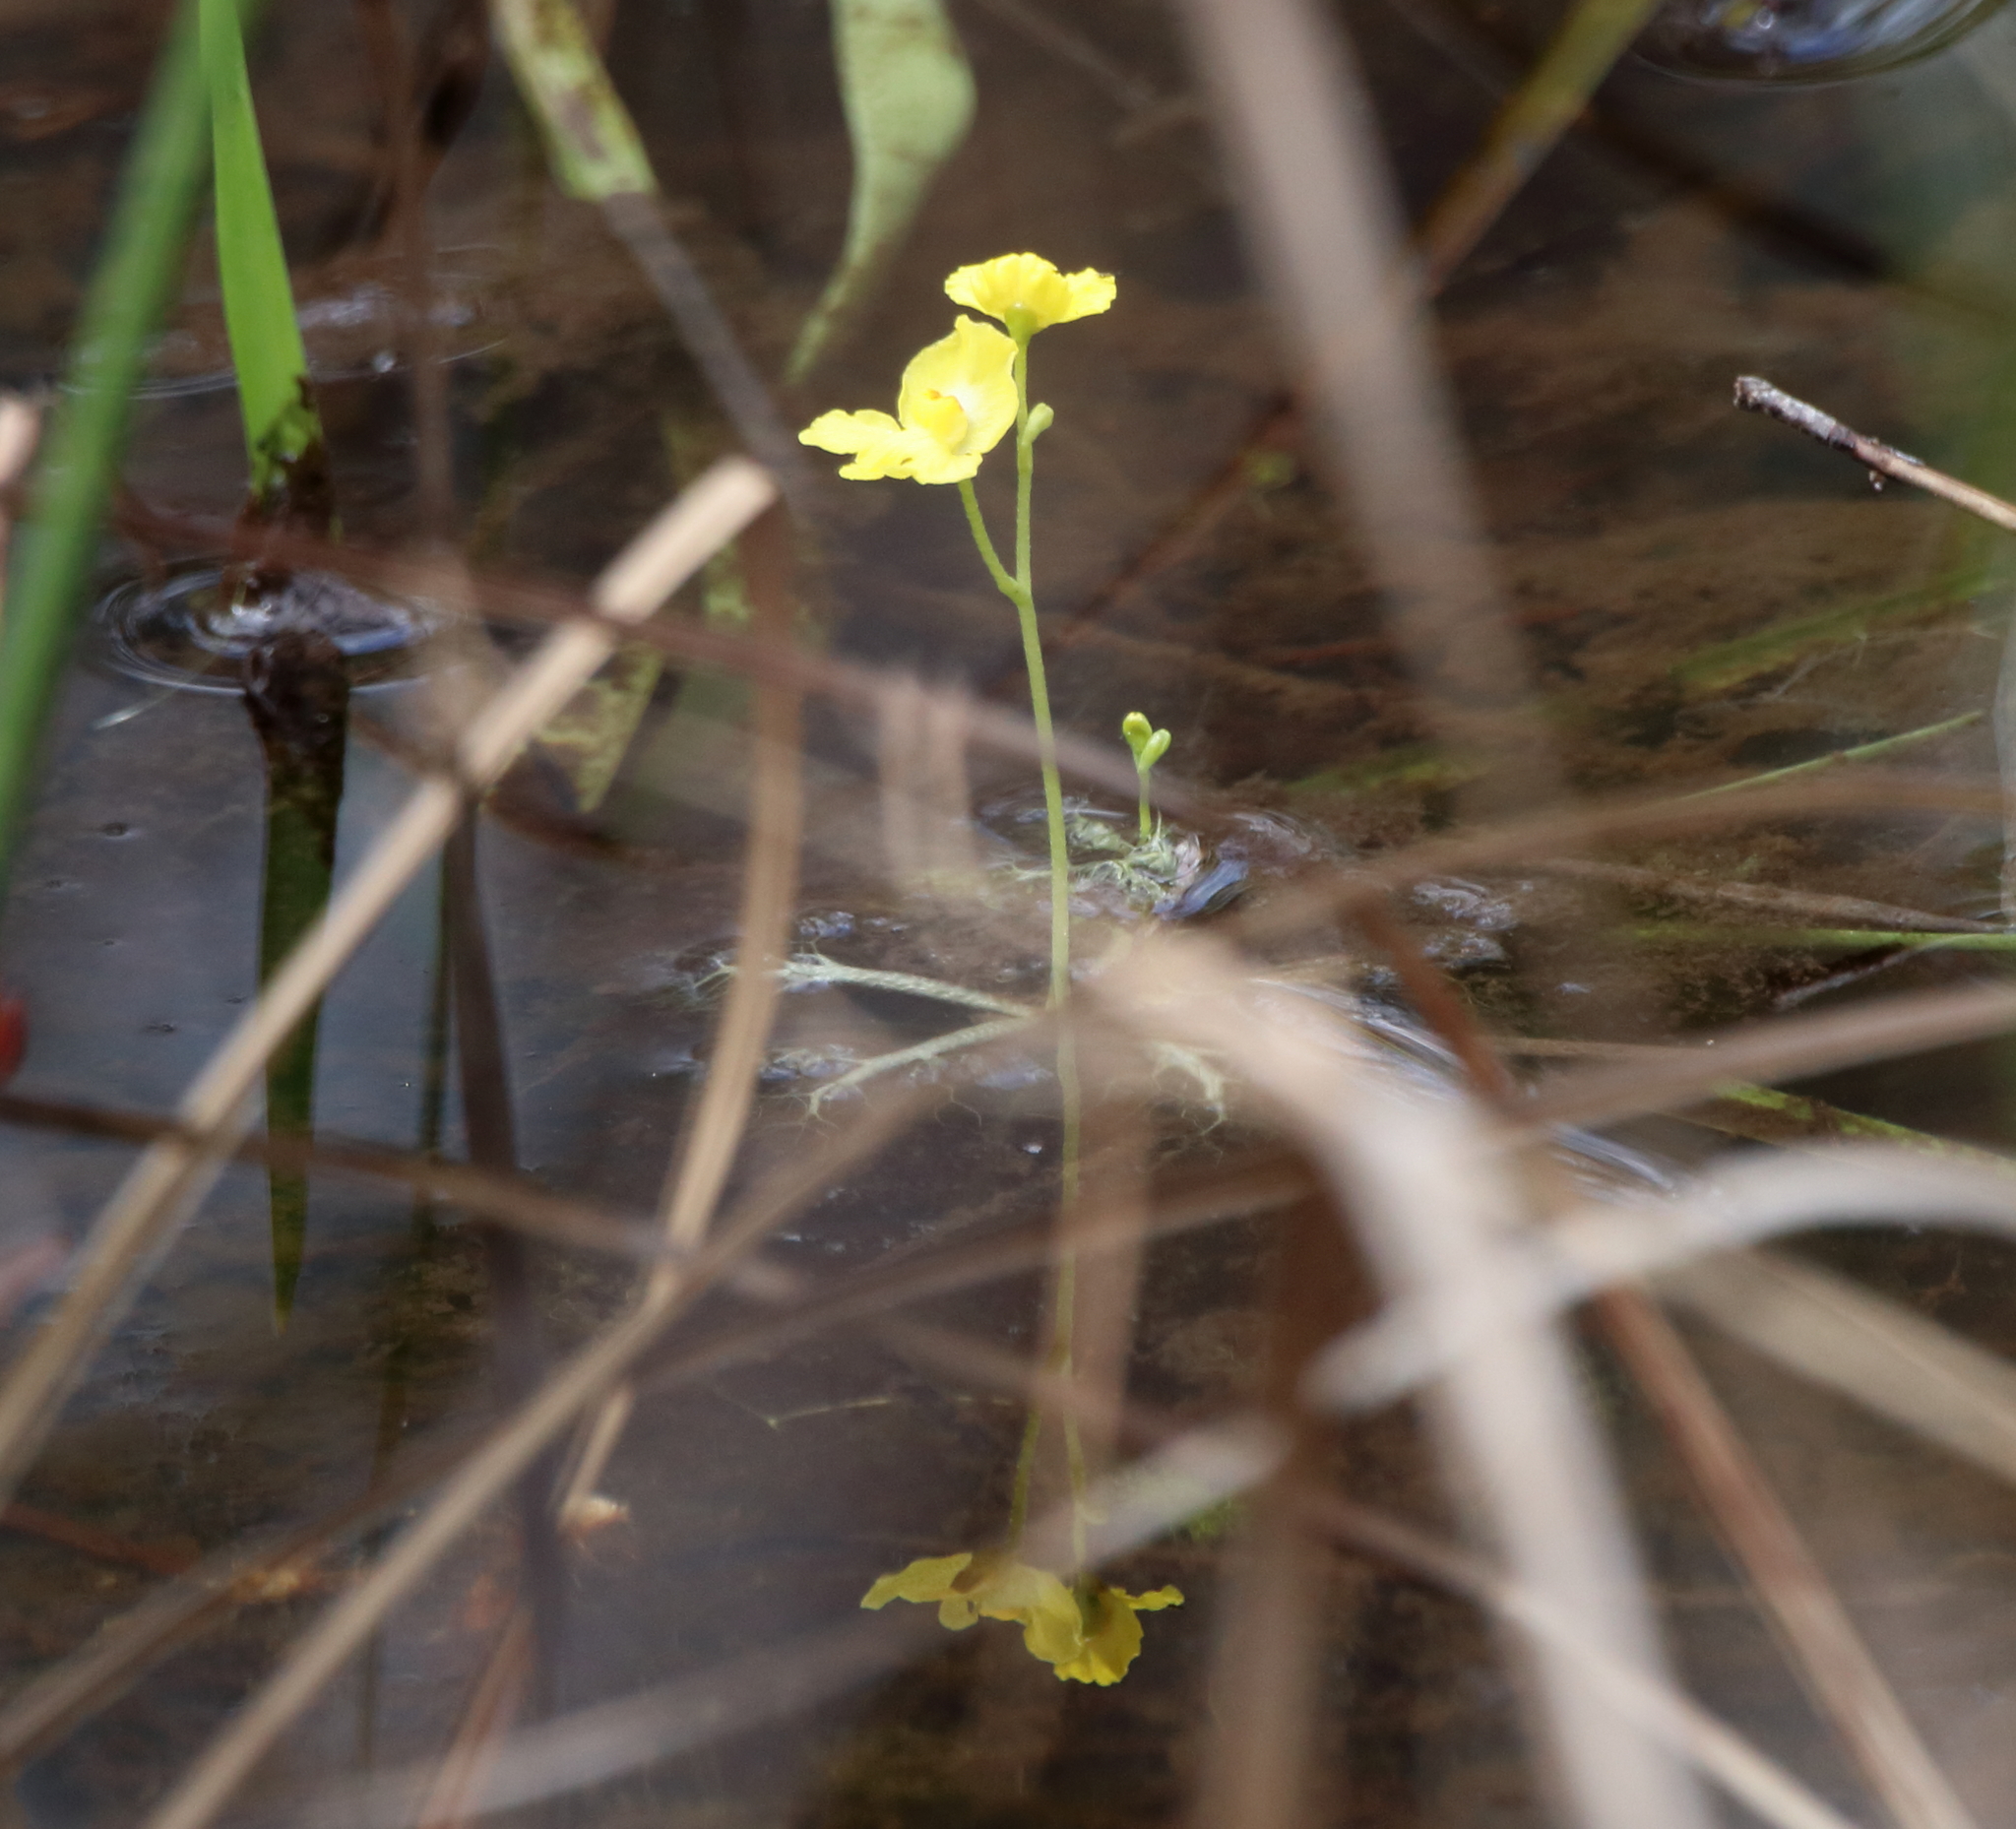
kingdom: Plantae
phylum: Tracheophyta
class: Magnoliopsida
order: Lamiales
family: Lentibulariaceae
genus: Utricularia
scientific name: Utricularia radiata
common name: Floating bladderwort
